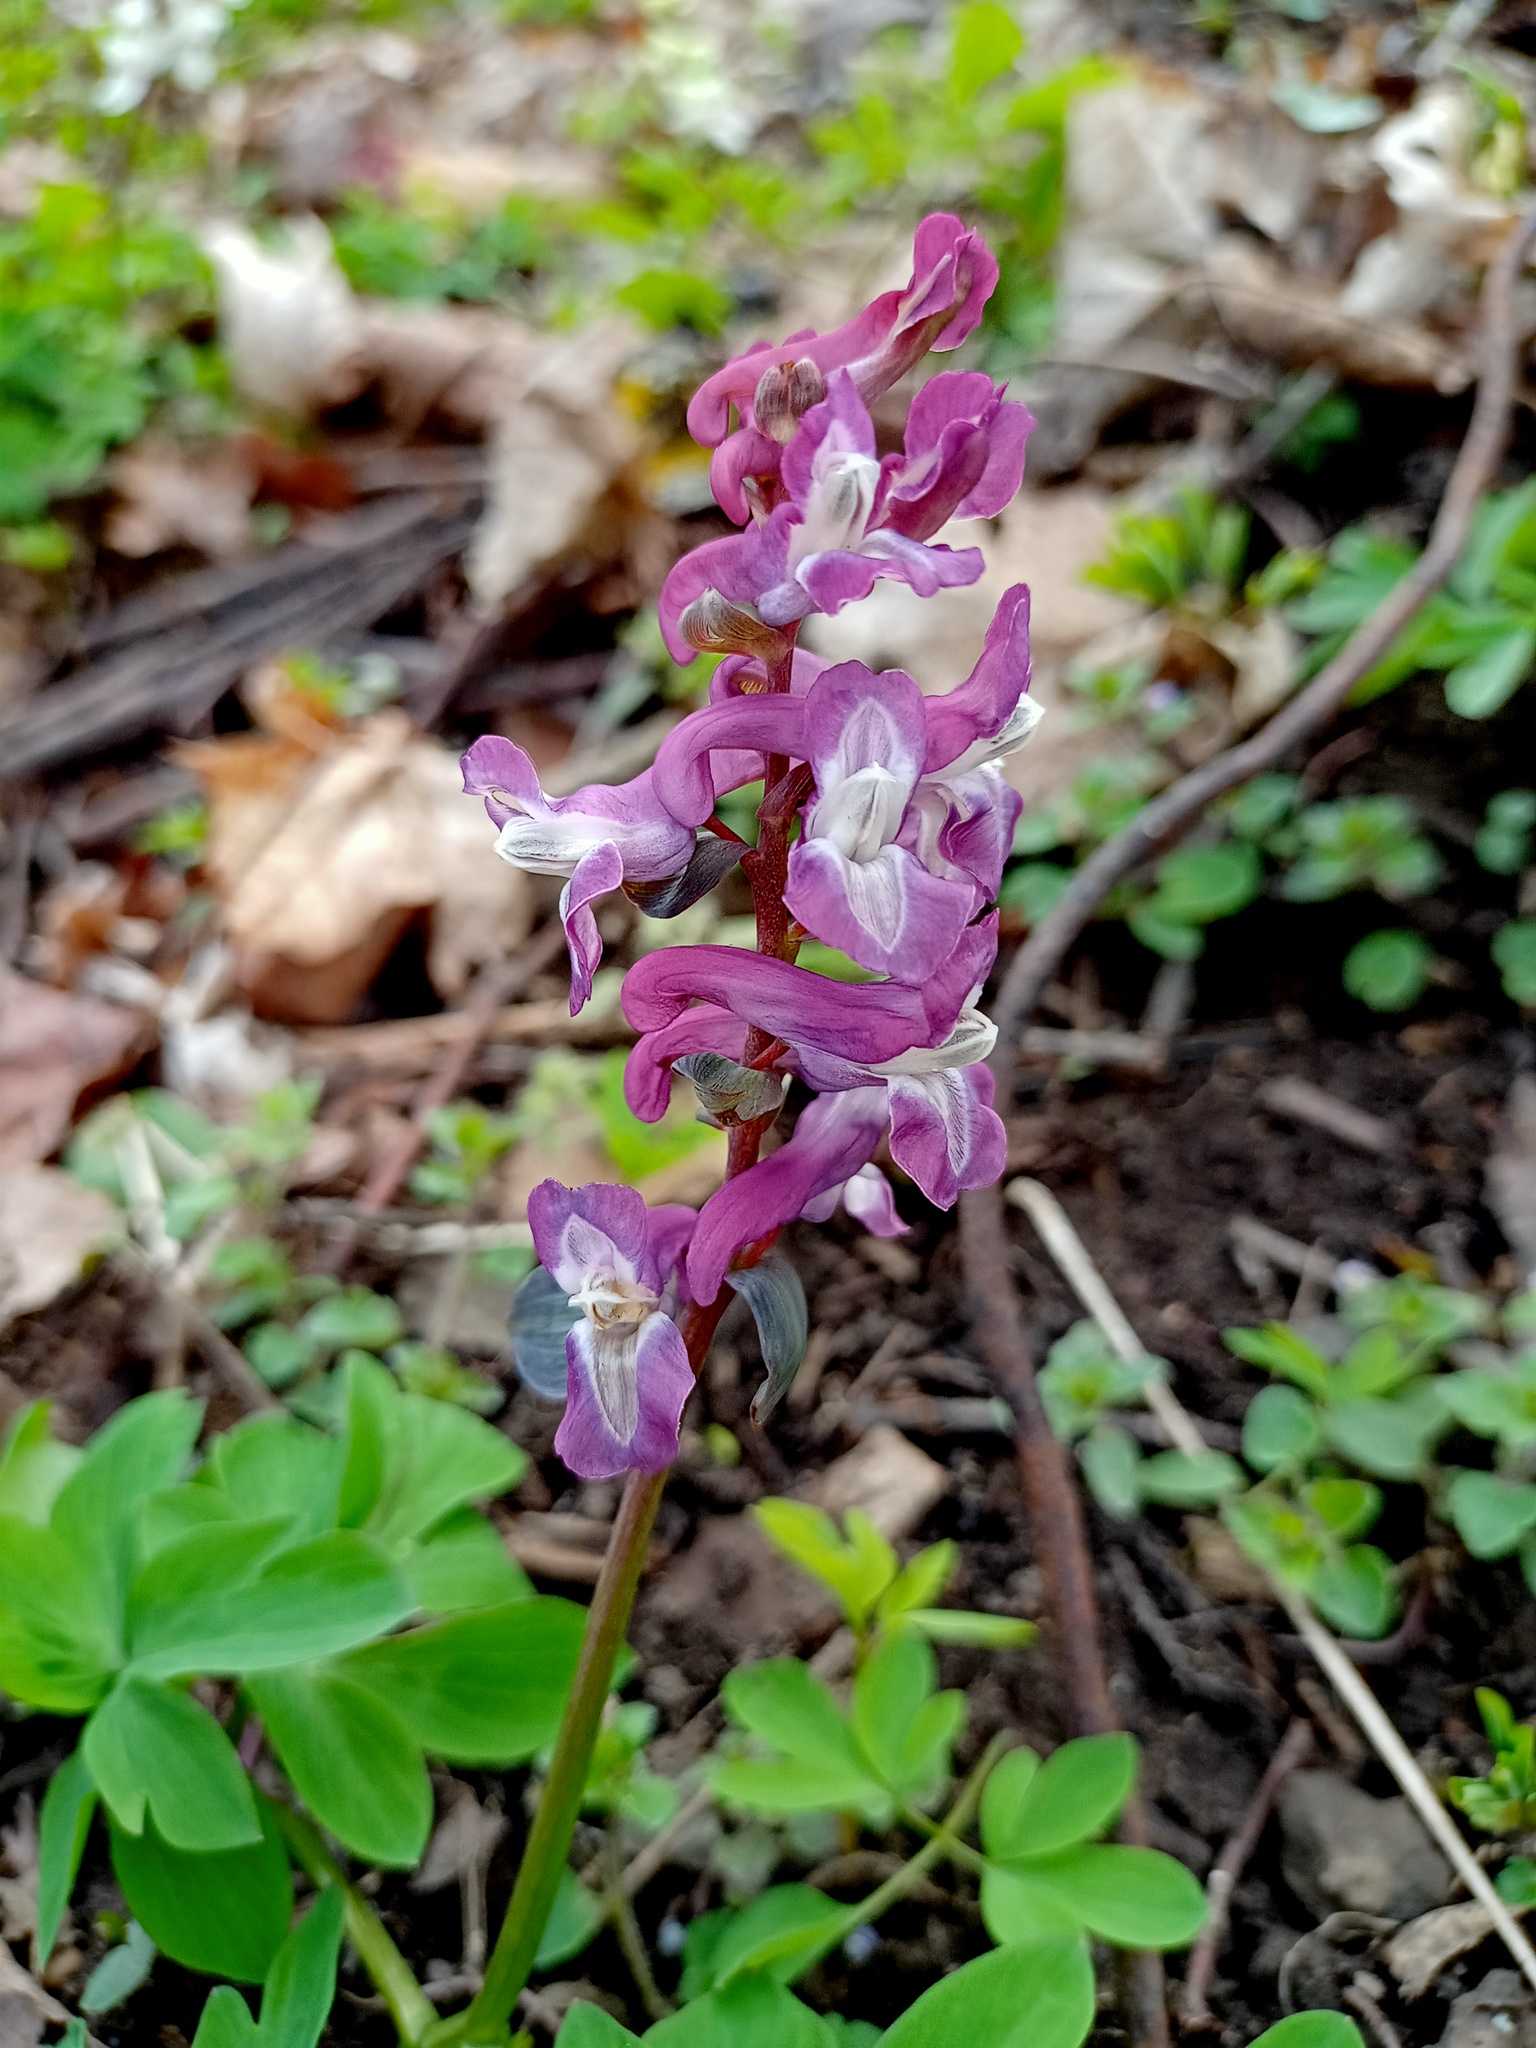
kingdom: Plantae
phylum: Tracheophyta
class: Magnoliopsida
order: Ranunculales
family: Papaveraceae
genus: Corydalis
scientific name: Corydalis cava
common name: Hollowroot
